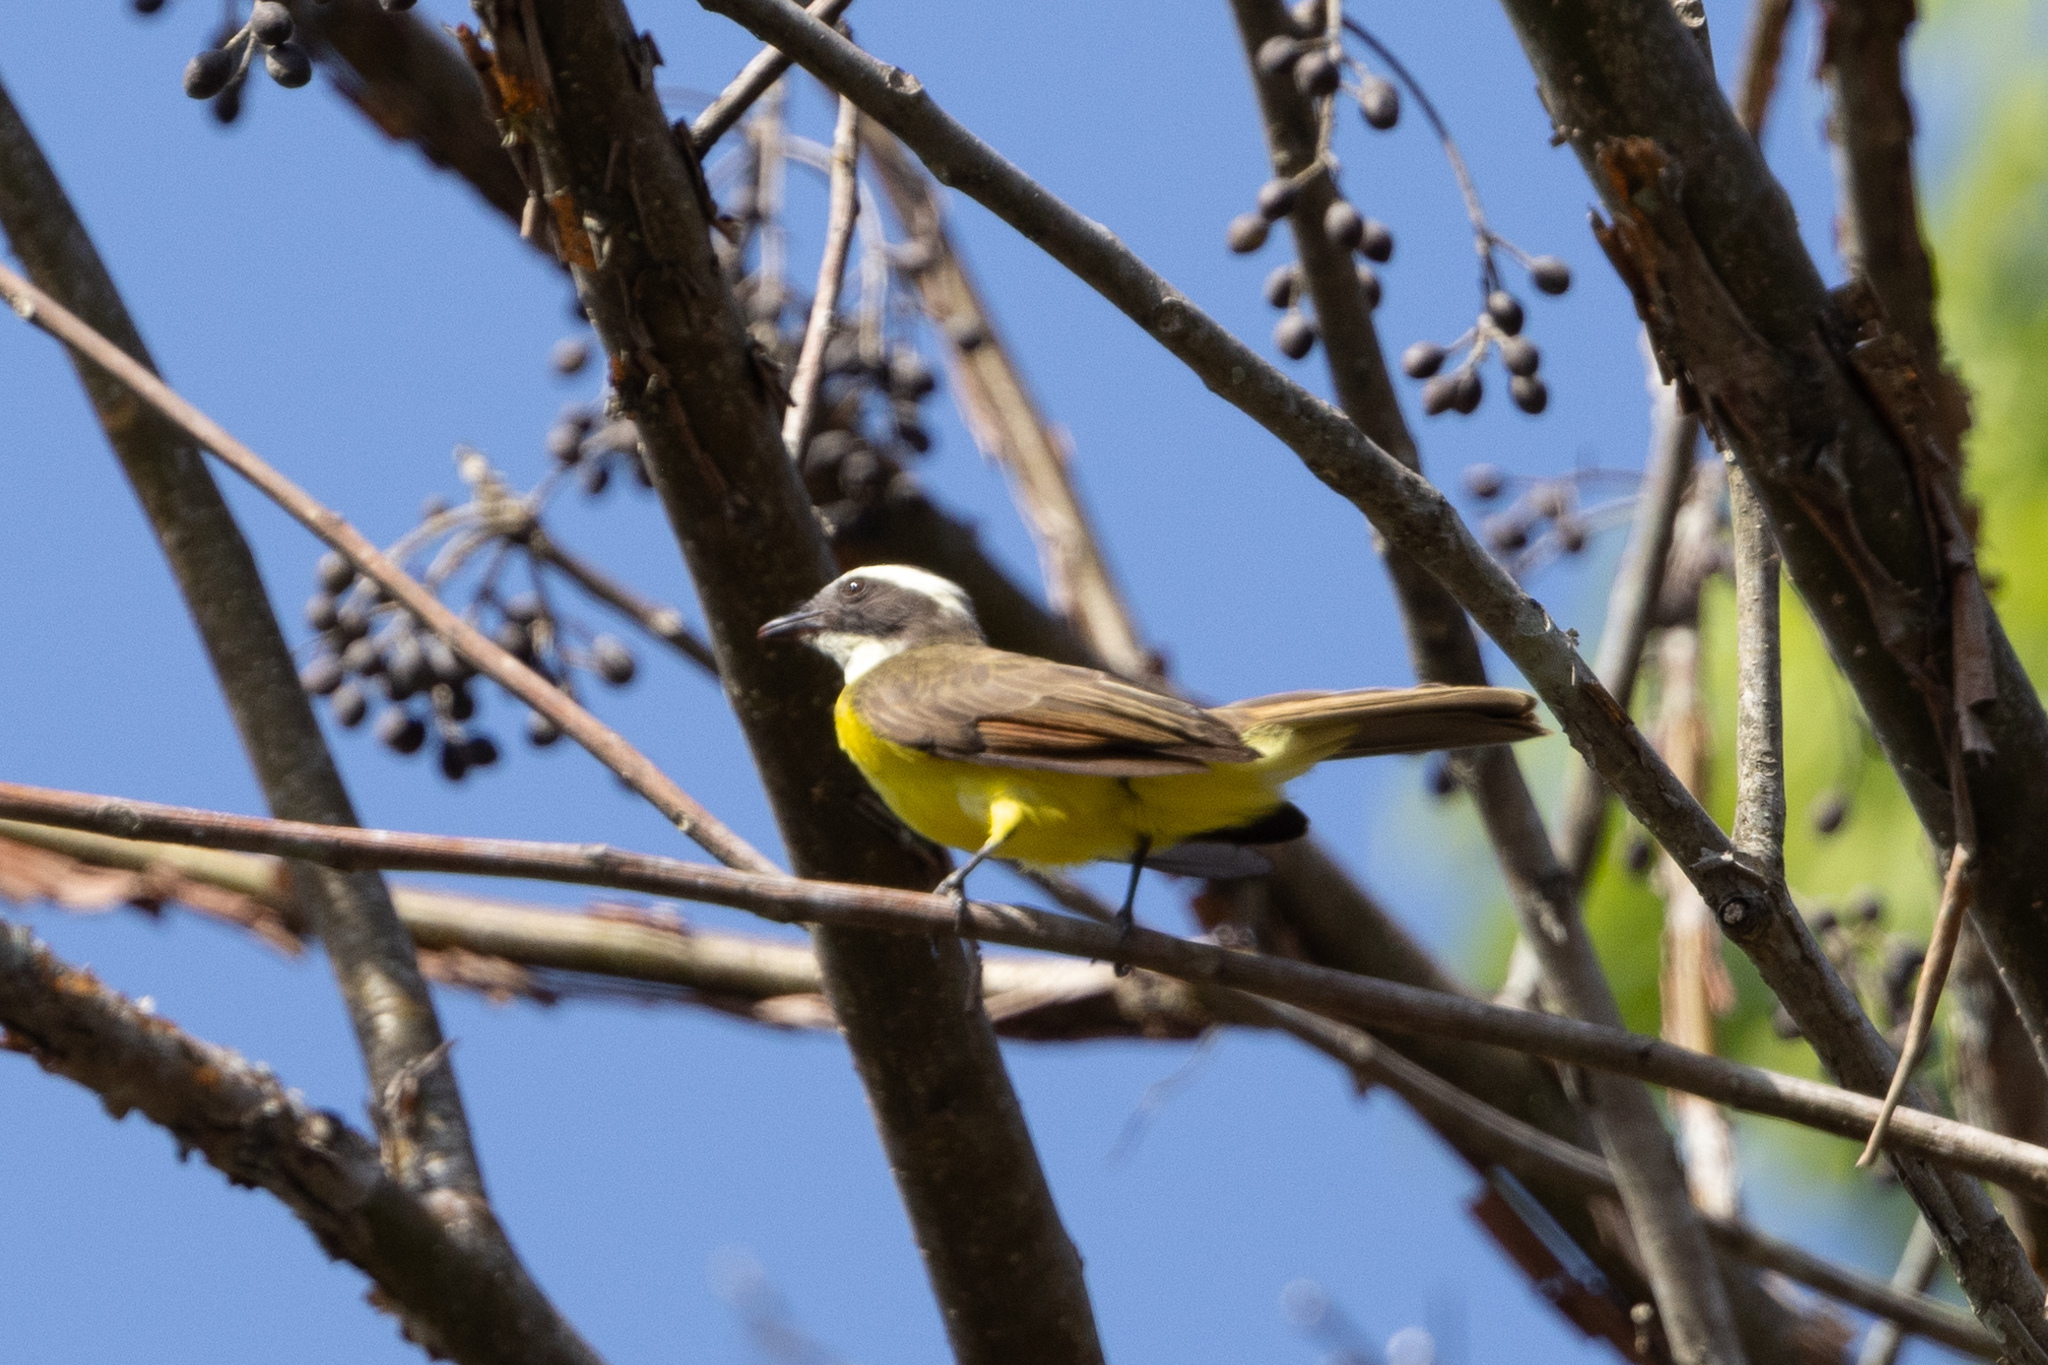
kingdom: Animalia
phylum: Chordata
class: Aves
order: Passeriformes
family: Tyrannidae
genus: Myiozetetes
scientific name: Myiozetetes cayanensis
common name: Rusty-margined flycatcher
